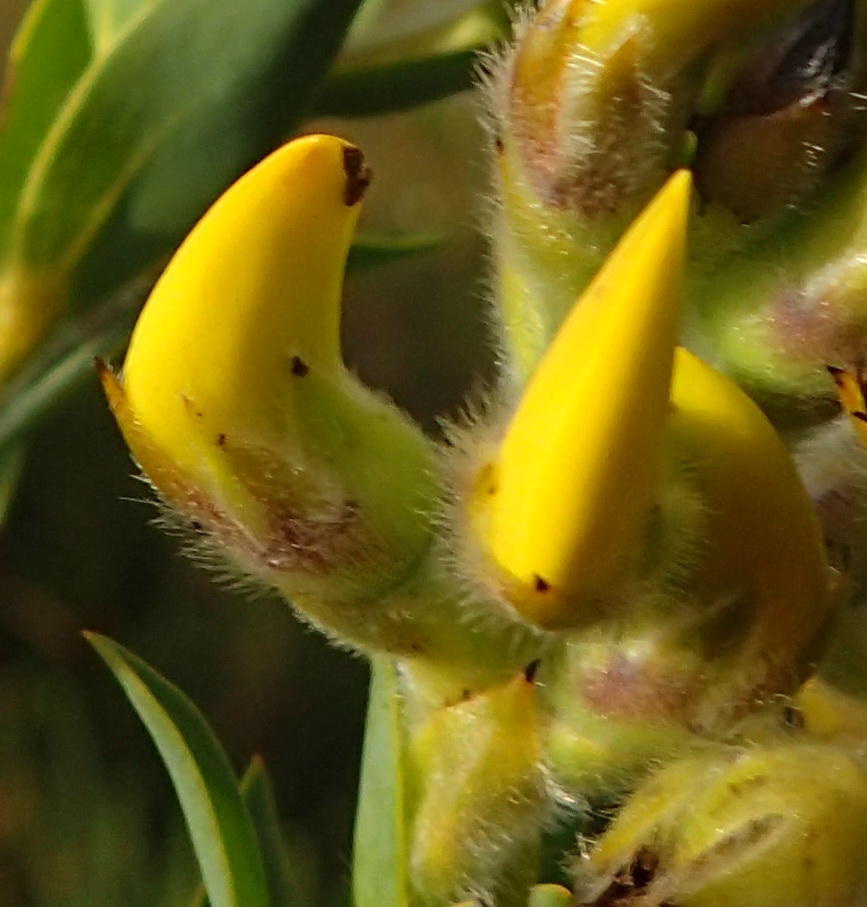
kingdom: Plantae
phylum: Tracheophyta
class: Magnoliopsida
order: Fabales
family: Fabaceae
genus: Liparia
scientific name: Liparia hirsuta
